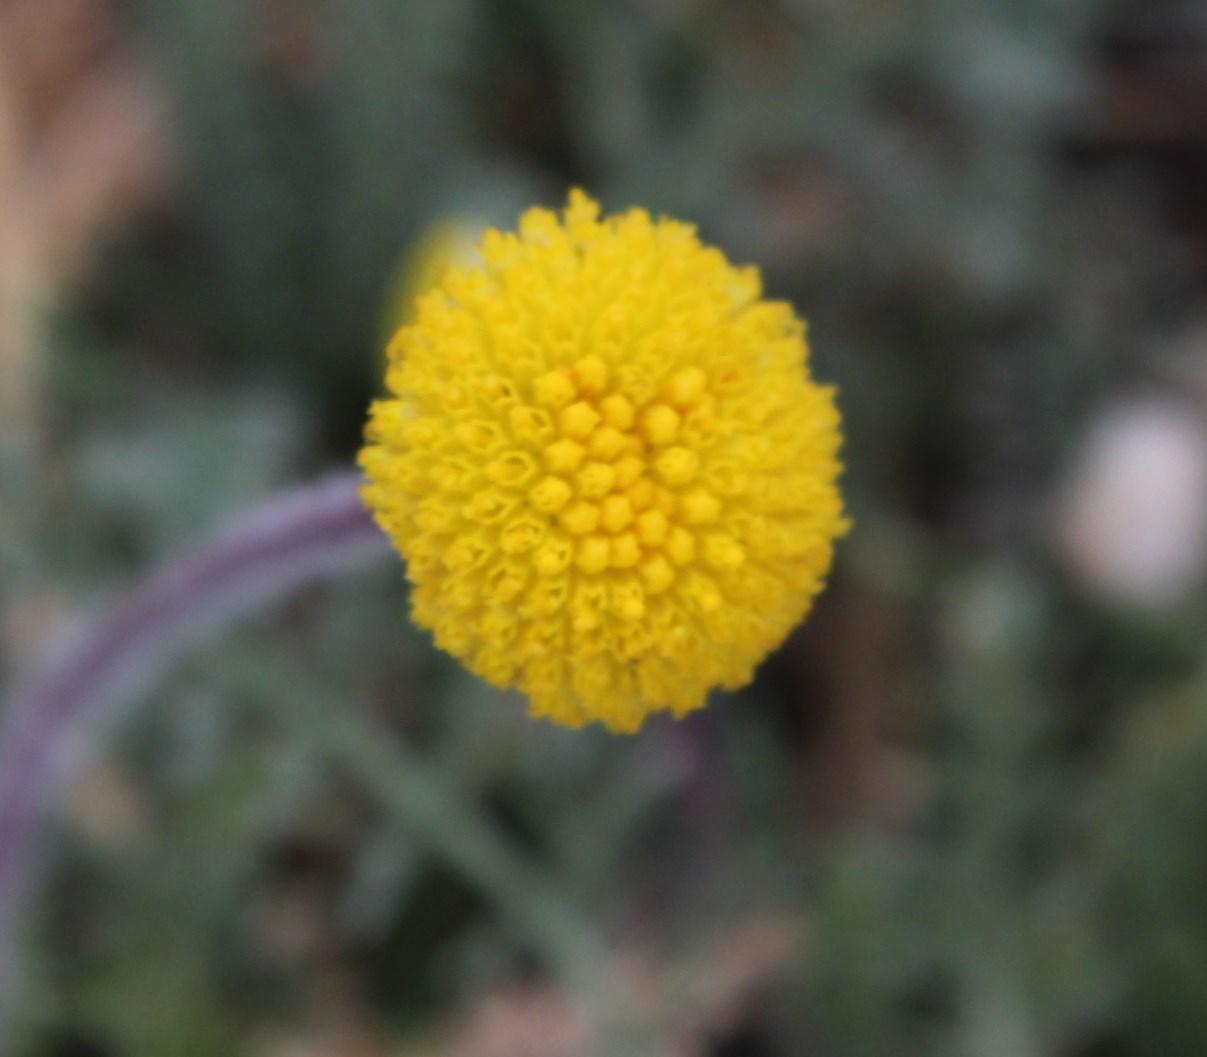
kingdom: Plantae
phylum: Tracheophyta
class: Magnoliopsida
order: Asterales
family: Asteraceae
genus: Lasiospermum
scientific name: Lasiospermum pedunculare
